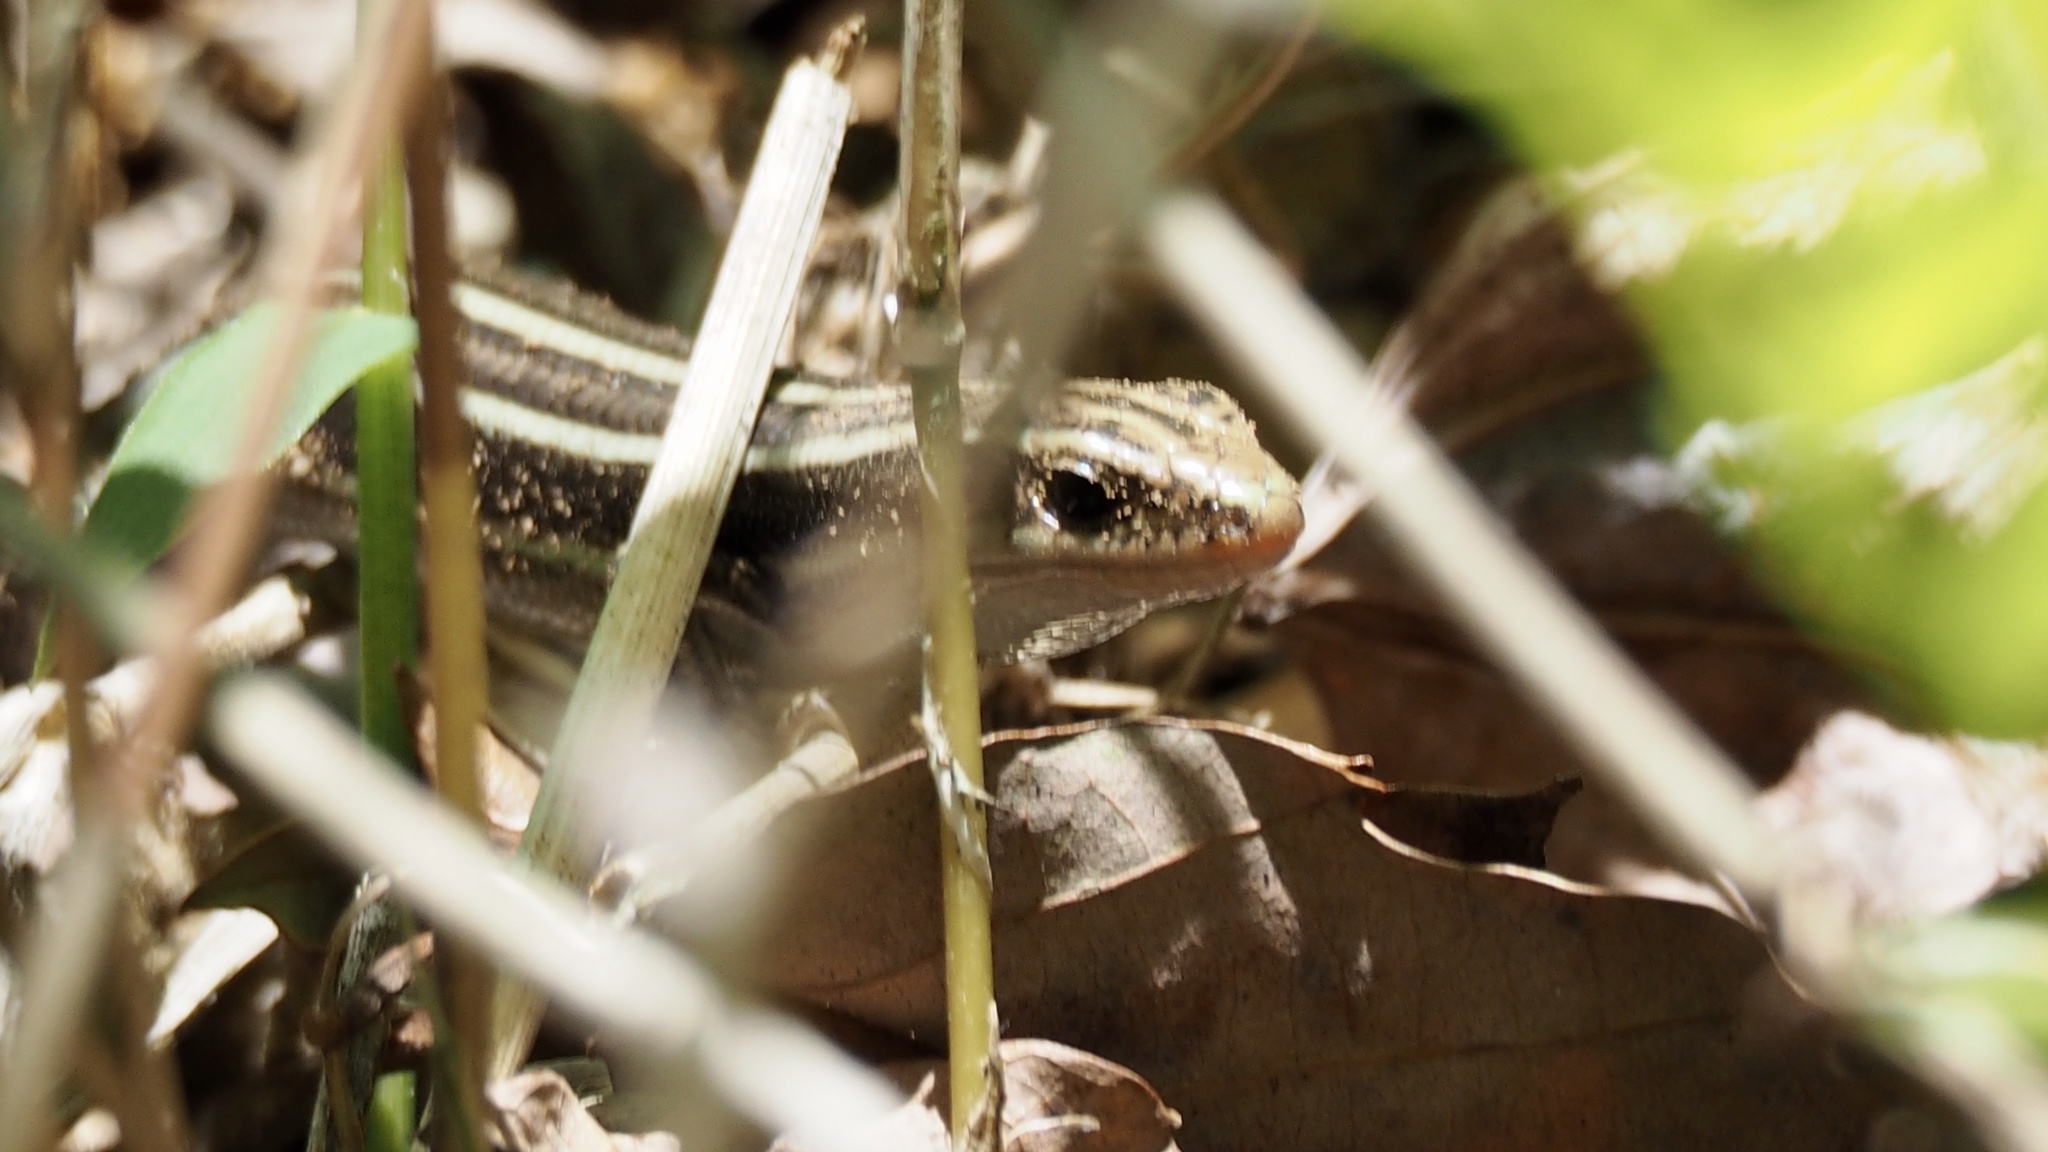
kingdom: Animalia
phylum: Chordata
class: Squamata
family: Scincidae
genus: Plestiodon
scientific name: Plestiodon japonicus
